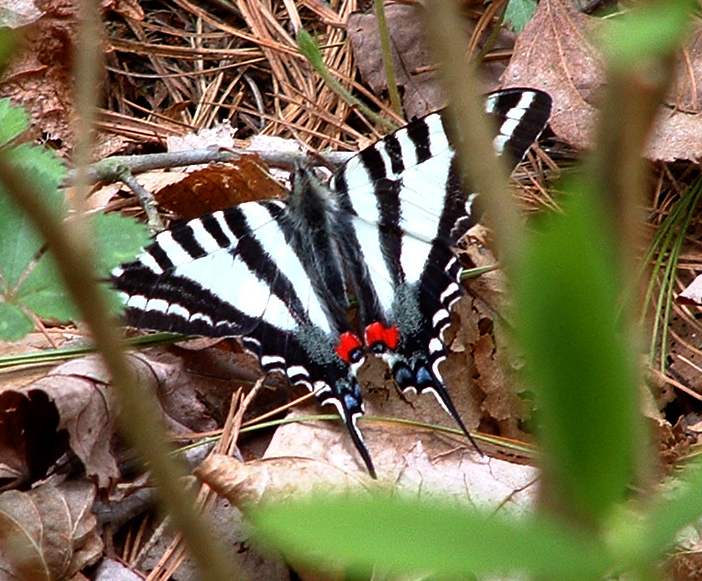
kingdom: Animalia
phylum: Arthropoda
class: Insecta
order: Lepidoptera
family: Papilionidae
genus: Protographium
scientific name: Protographium marcellus
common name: Zebra swallowtail
